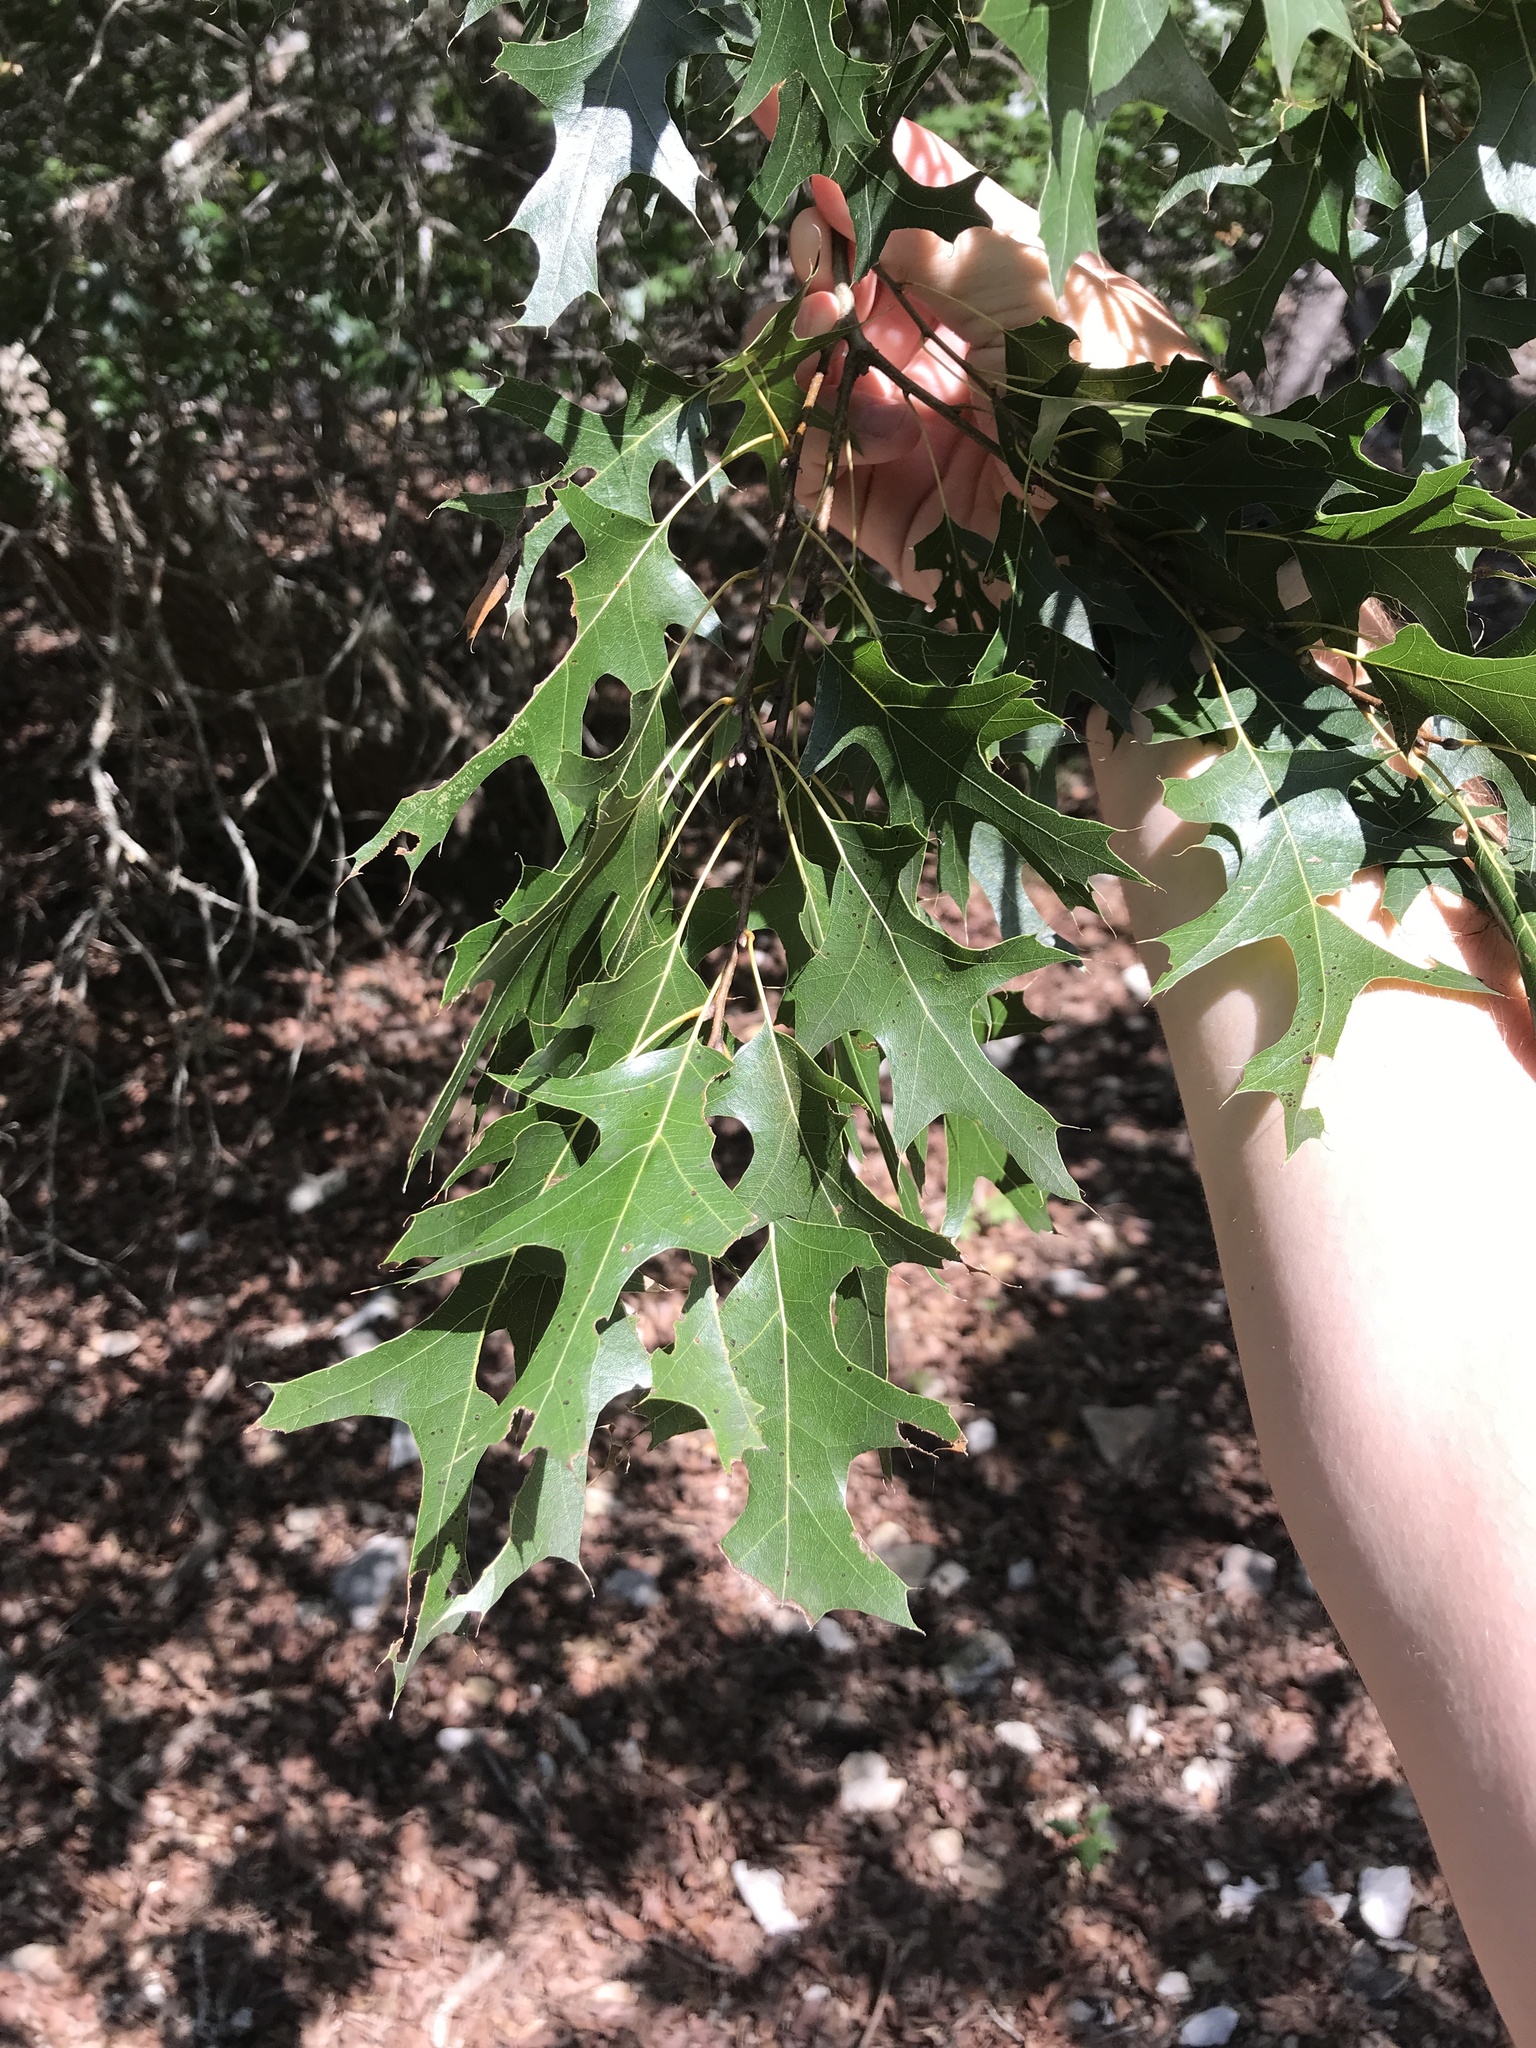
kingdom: Plantae
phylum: Tracheophyta
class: Magnoliopsida
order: Fagales
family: Fagaceae
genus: Quercus
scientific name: Quercus buckleyi
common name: Buckley oak
